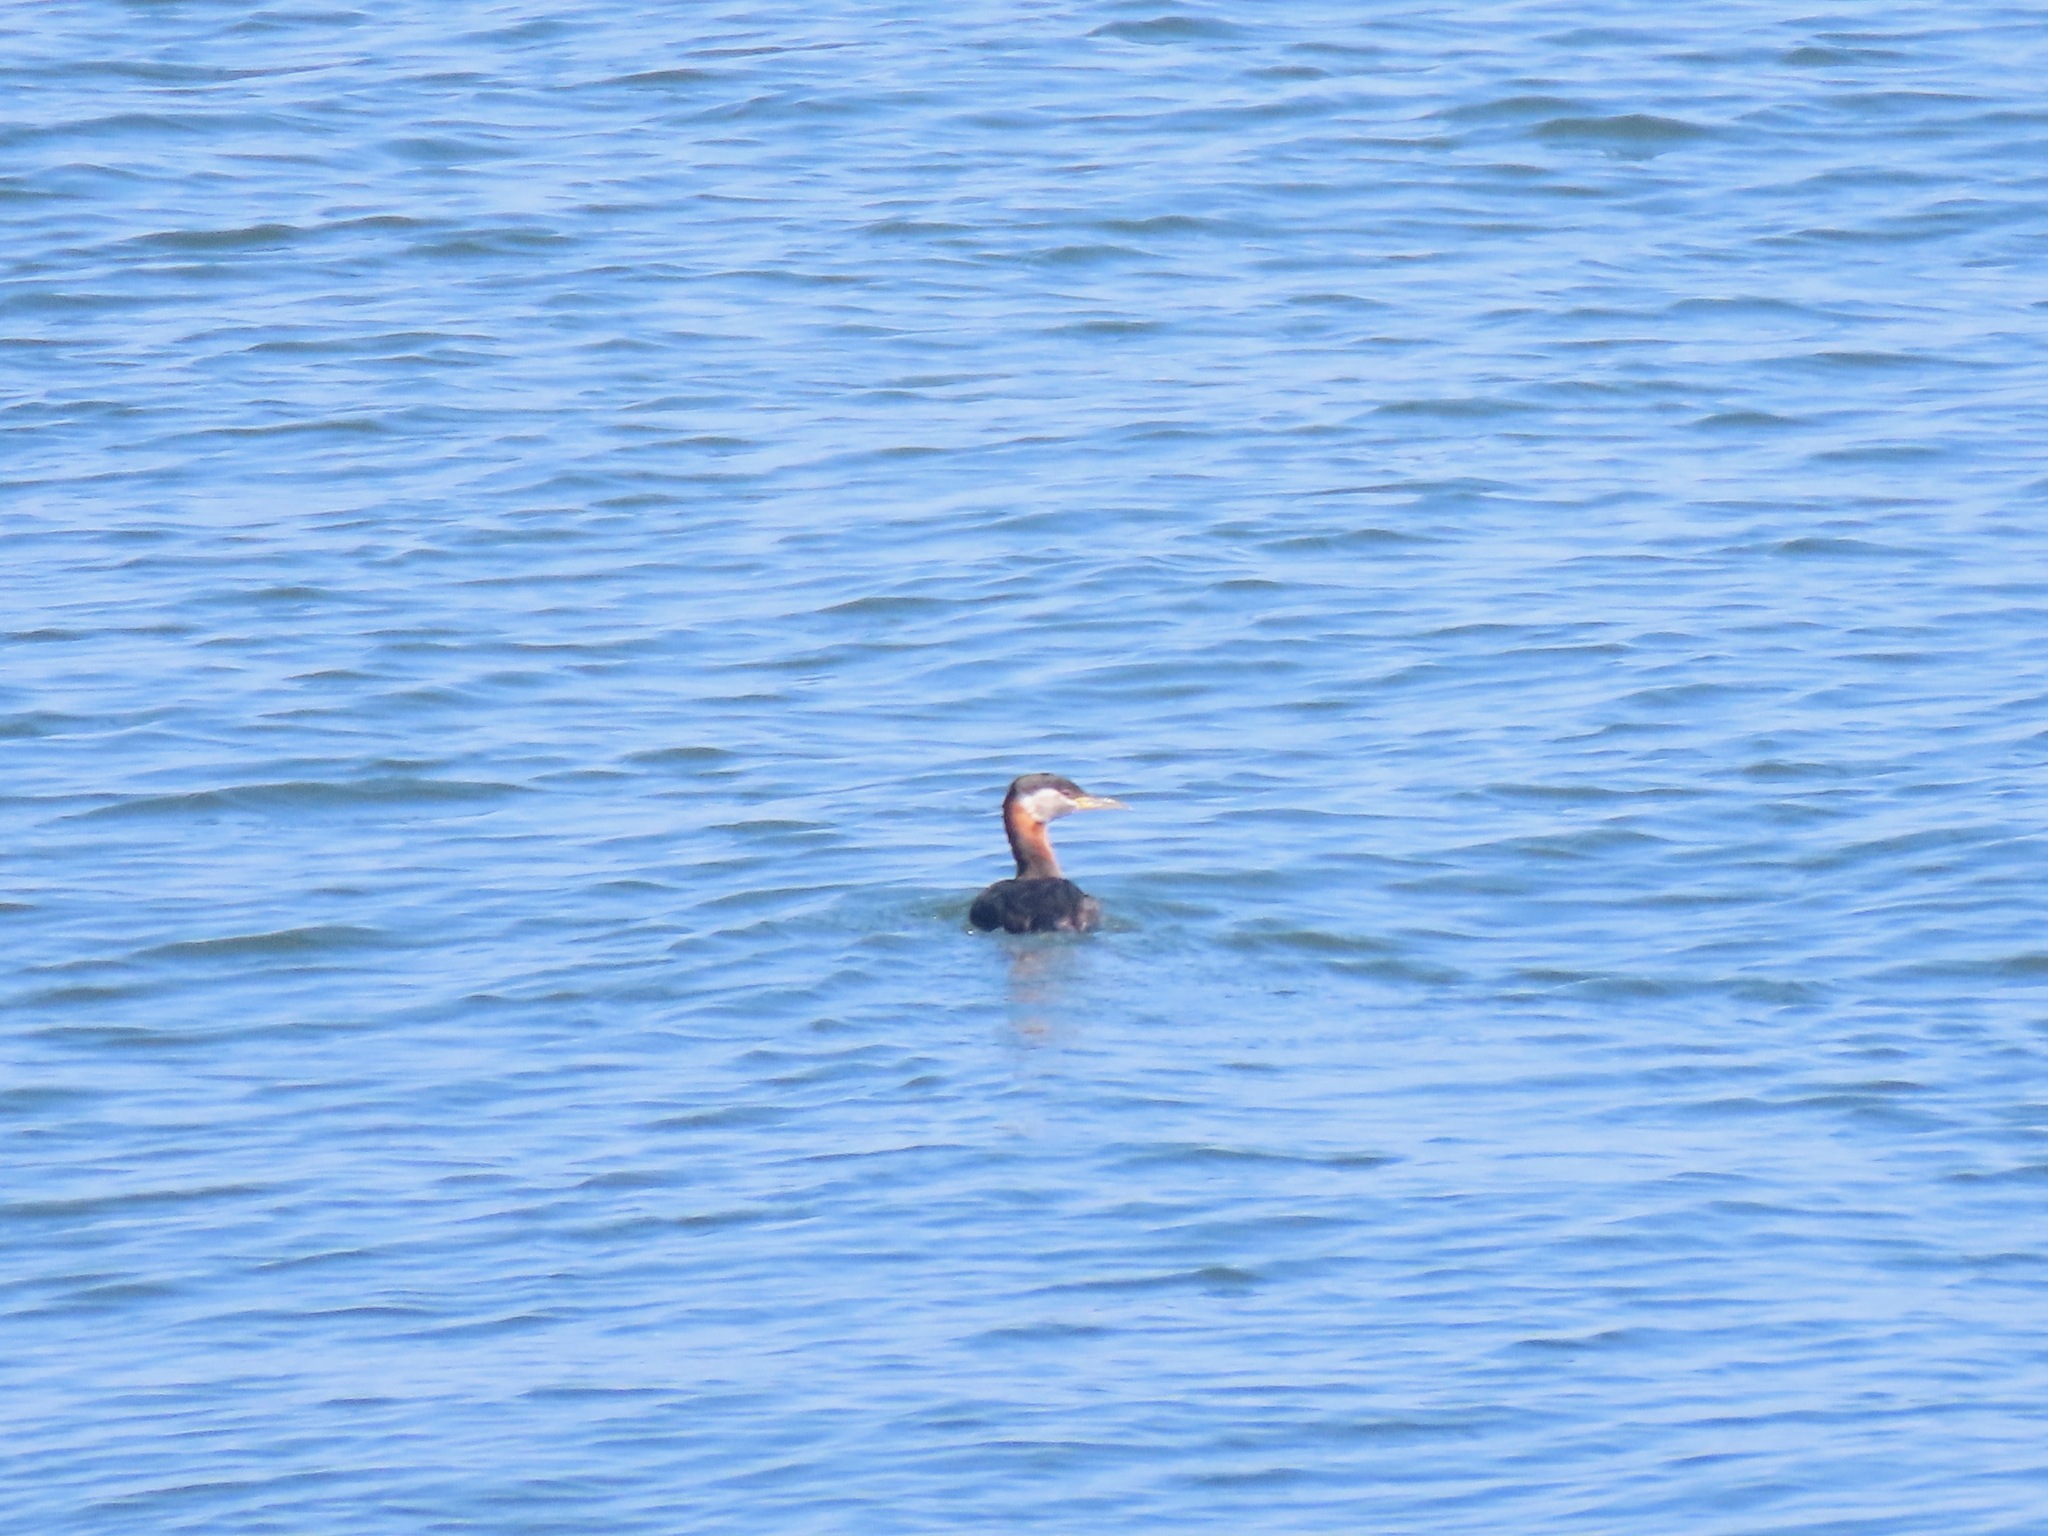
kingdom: Animalia
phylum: Chordata
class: Aves
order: Podicipediformes
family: Podicipedidae
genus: Podiceps
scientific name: Podiceps grisegena
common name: Red-necked grebe
